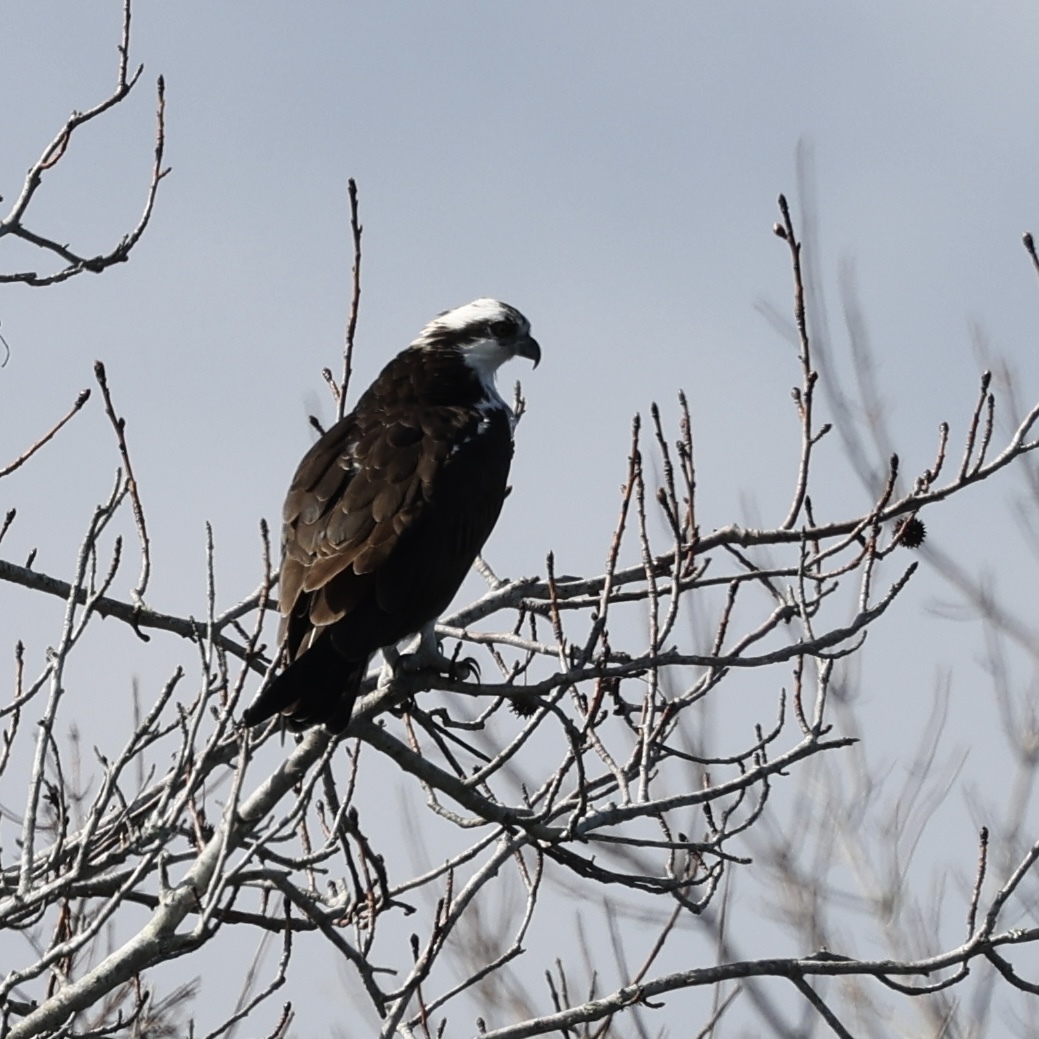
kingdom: Animalia
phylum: Chordata
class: Aves
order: Accipitriformes
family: Pandionidae
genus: Pandion
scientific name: Pandion haliaetus
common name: Osprey
